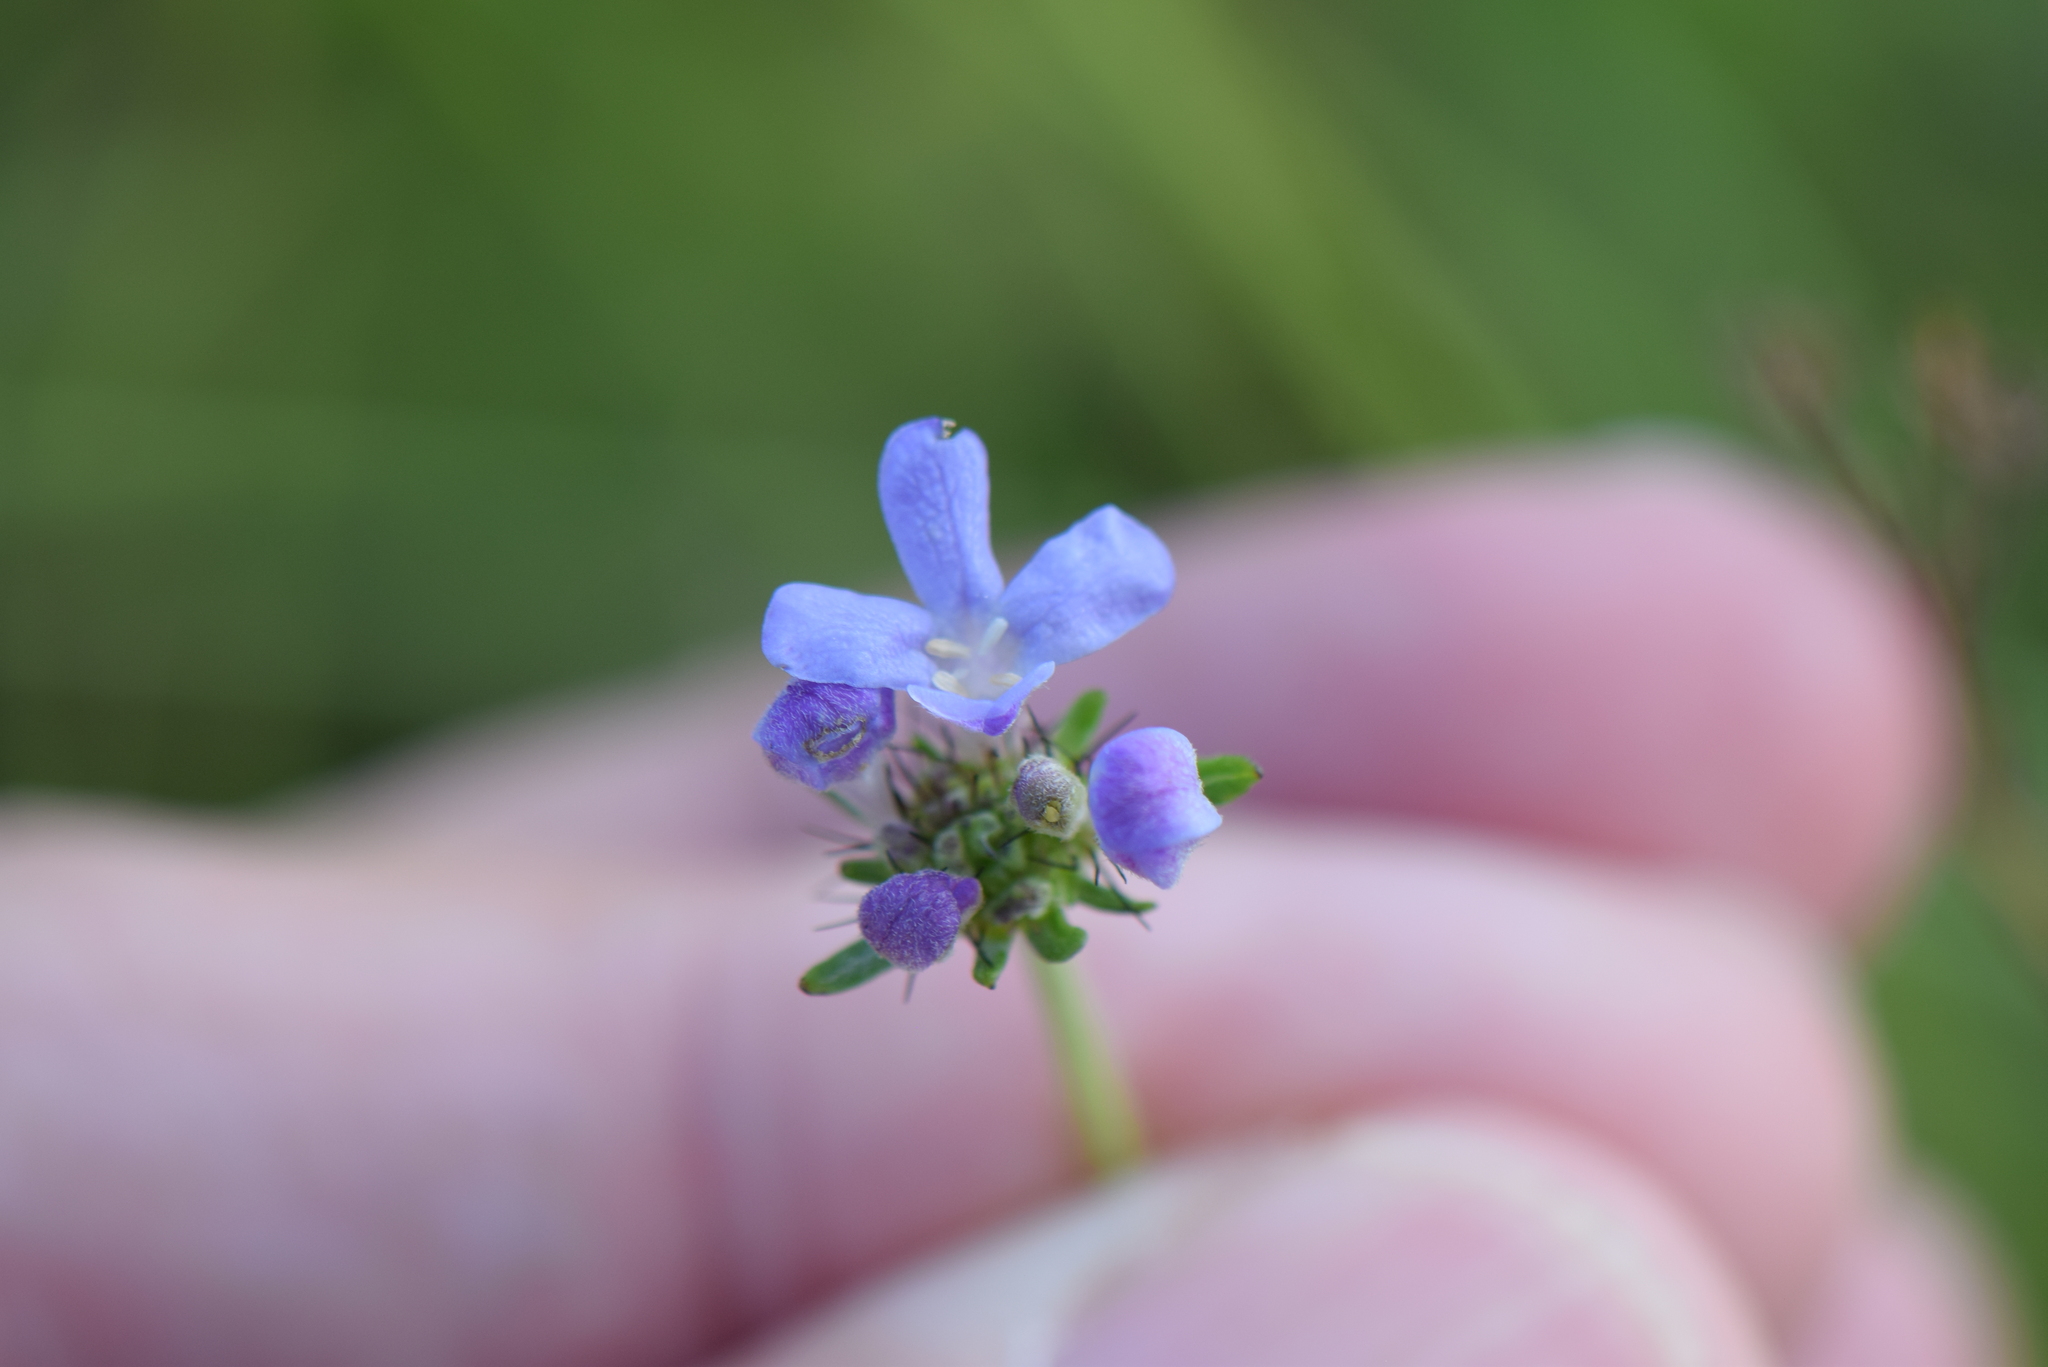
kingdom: Plantae
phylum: Tracheophyta
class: Magnoliopsida
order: Dipsacales
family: Caprifoliaceae
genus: Scabiosa
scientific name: Scabiosa columbaria
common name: Small scabious
